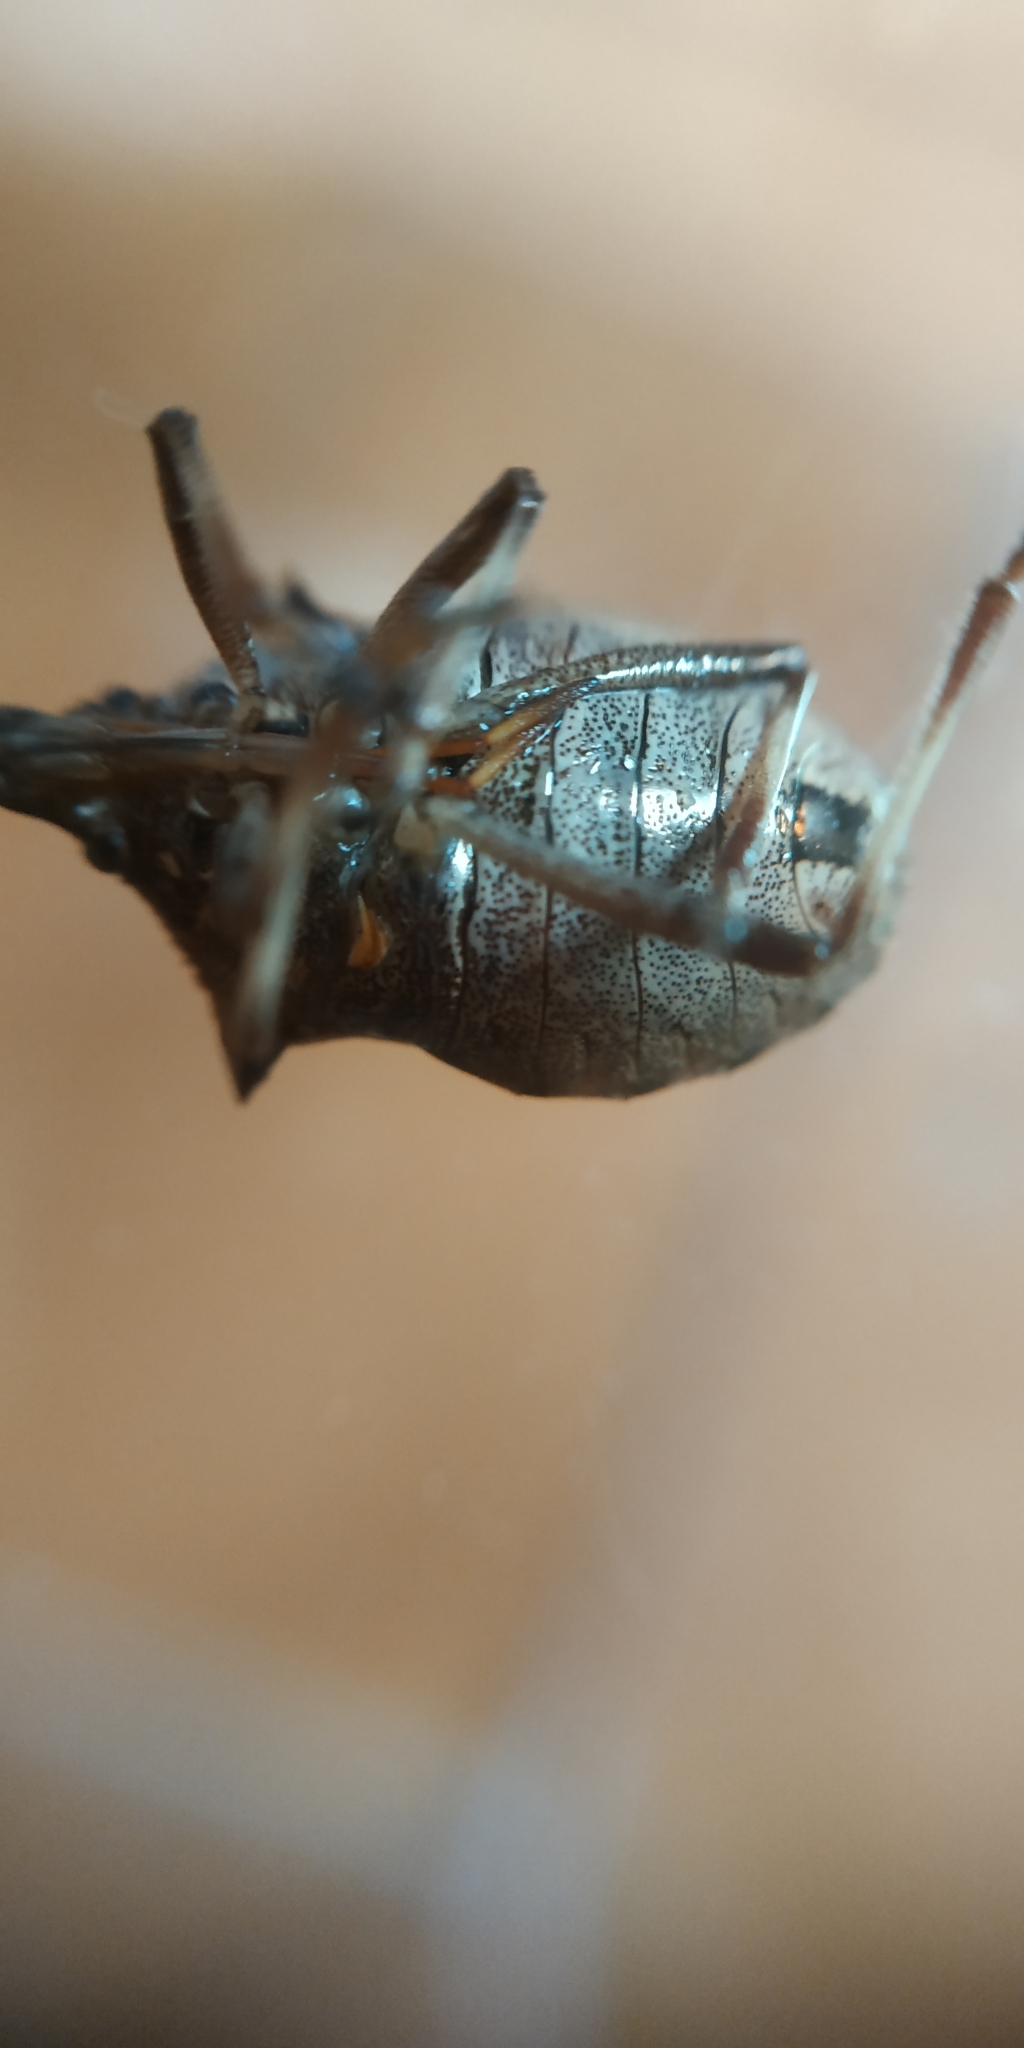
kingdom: Animalia
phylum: Arthropoda
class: Insecta
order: Hemiptera
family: Pentatomidae
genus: Picromerus
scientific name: Picromerus bidens
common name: Spiked shieldbug
